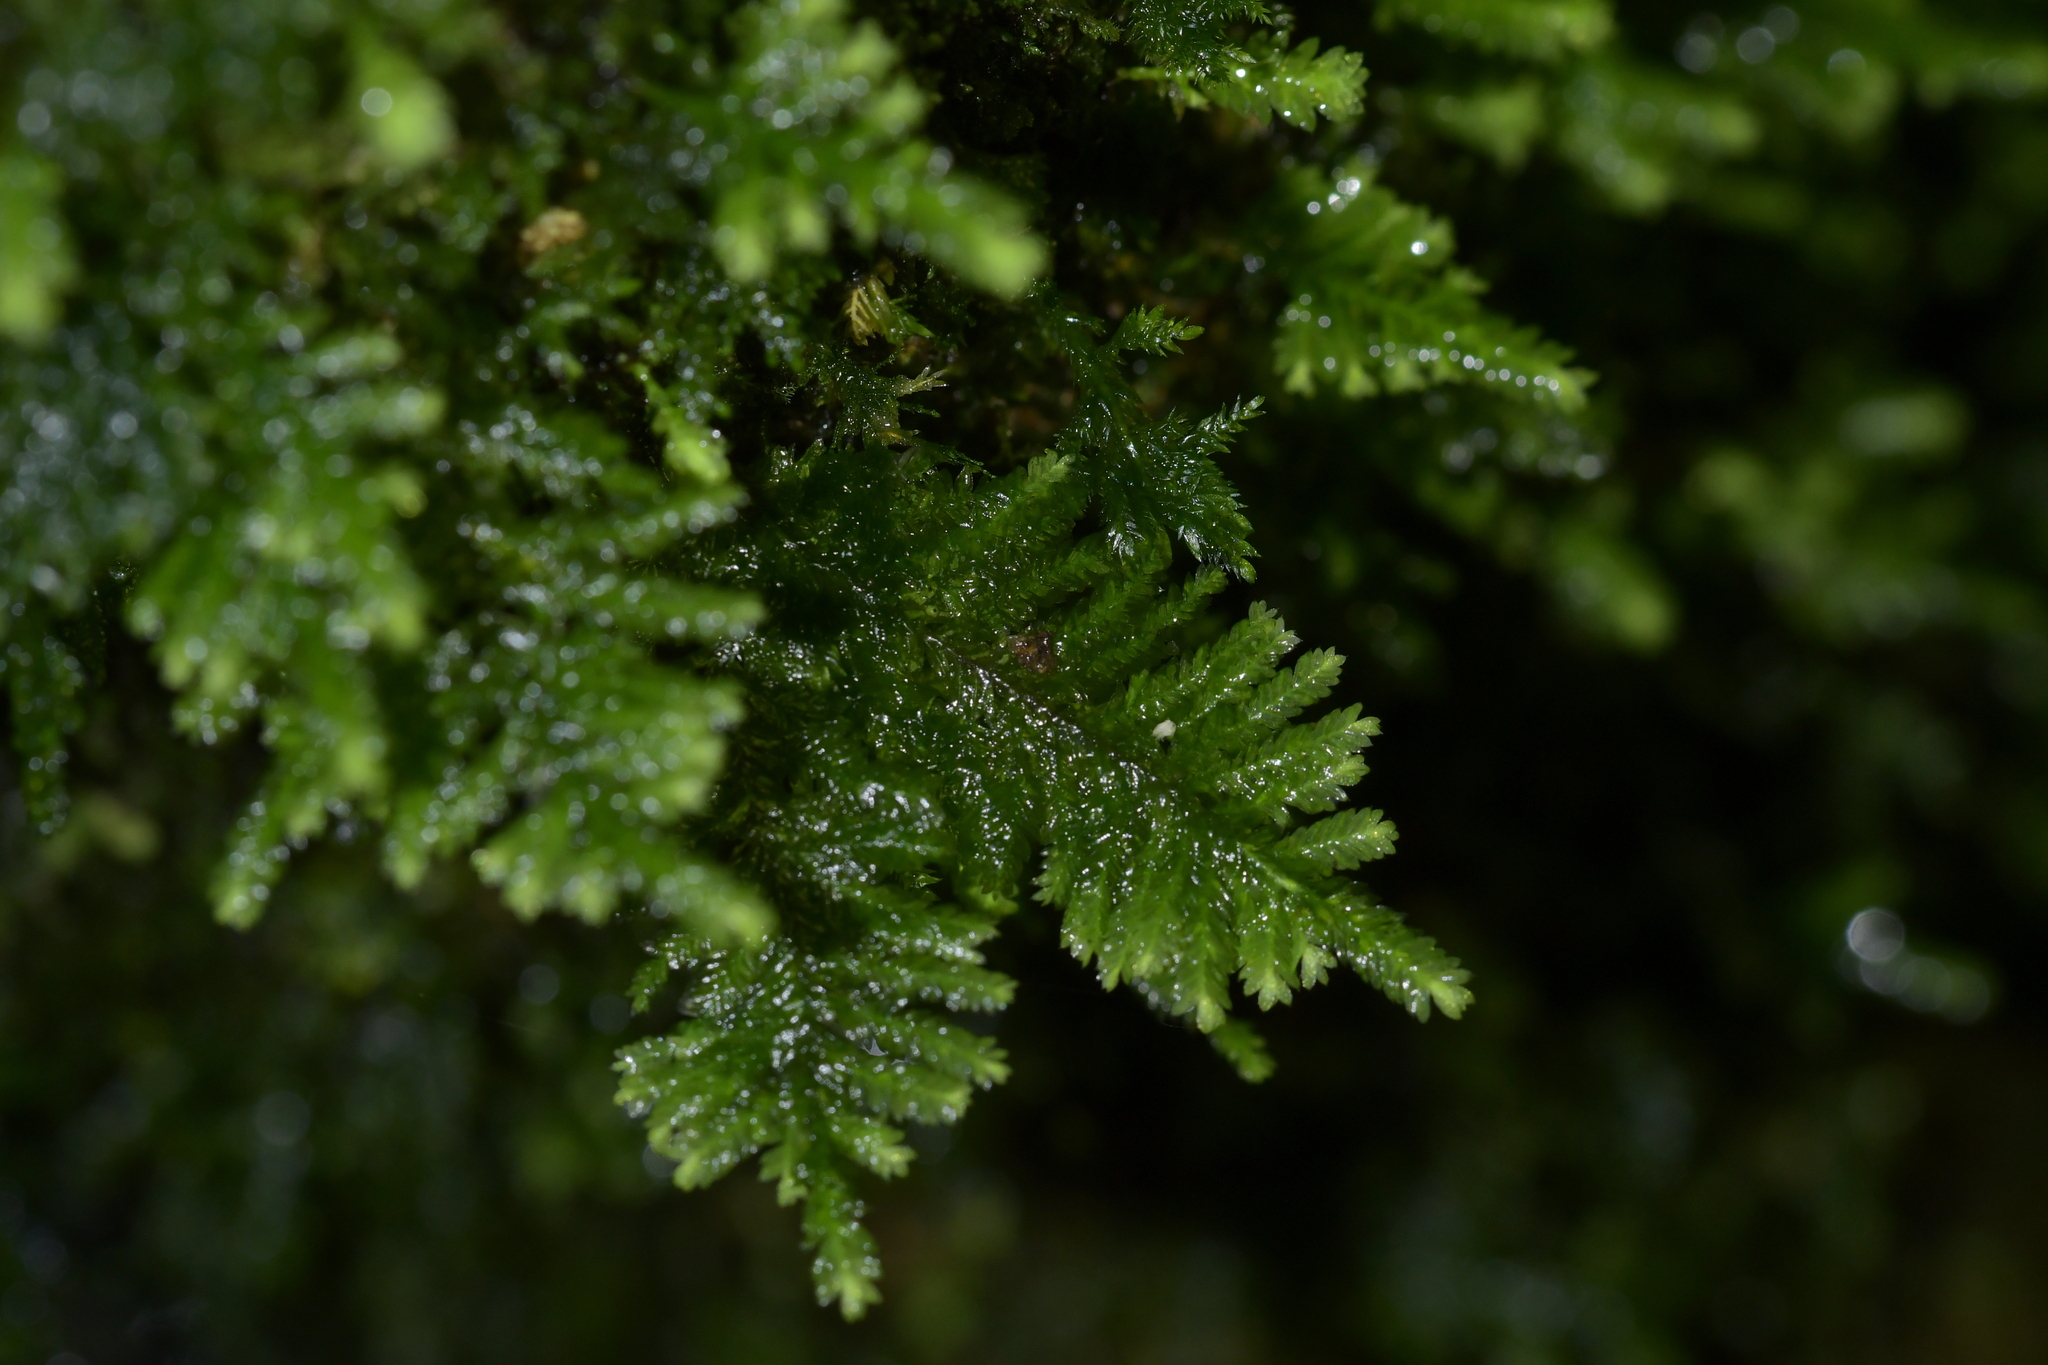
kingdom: Plantae
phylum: Bryophyta
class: Bryopsida
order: Hypopterygiales
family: Hypopterygiaceae
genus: Lopidium
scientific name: Lopidium concinnum
